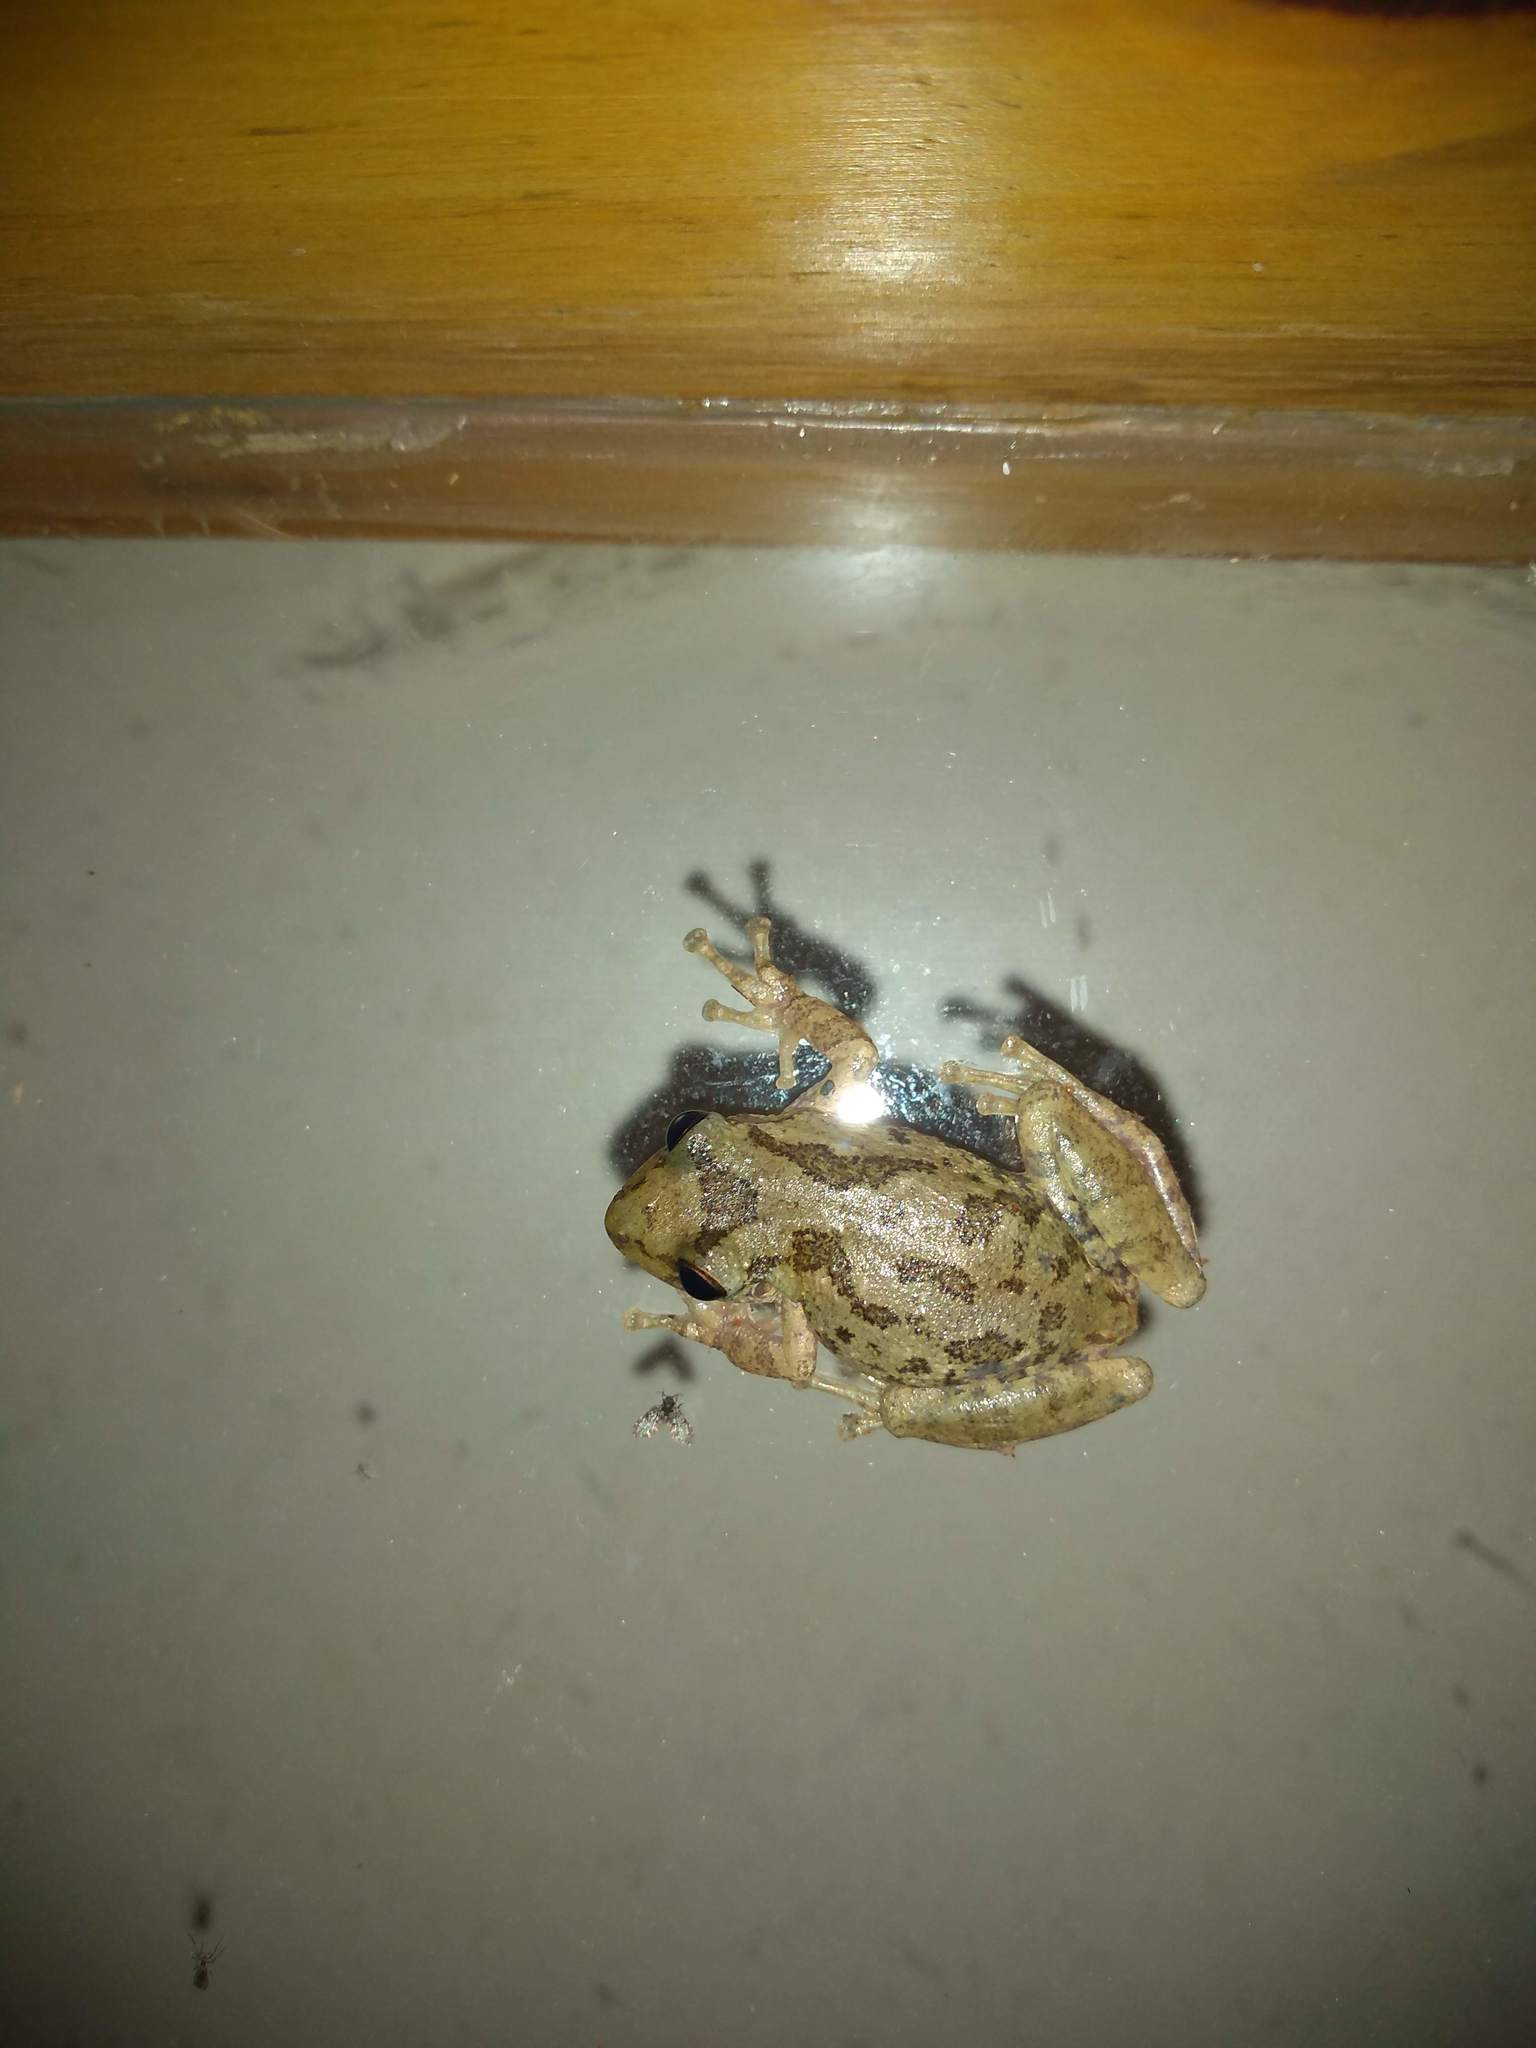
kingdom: Animalia
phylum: Chordata
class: Amphibia
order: Anura
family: Hylidae
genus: Scinax
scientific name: Scinax granulatus
